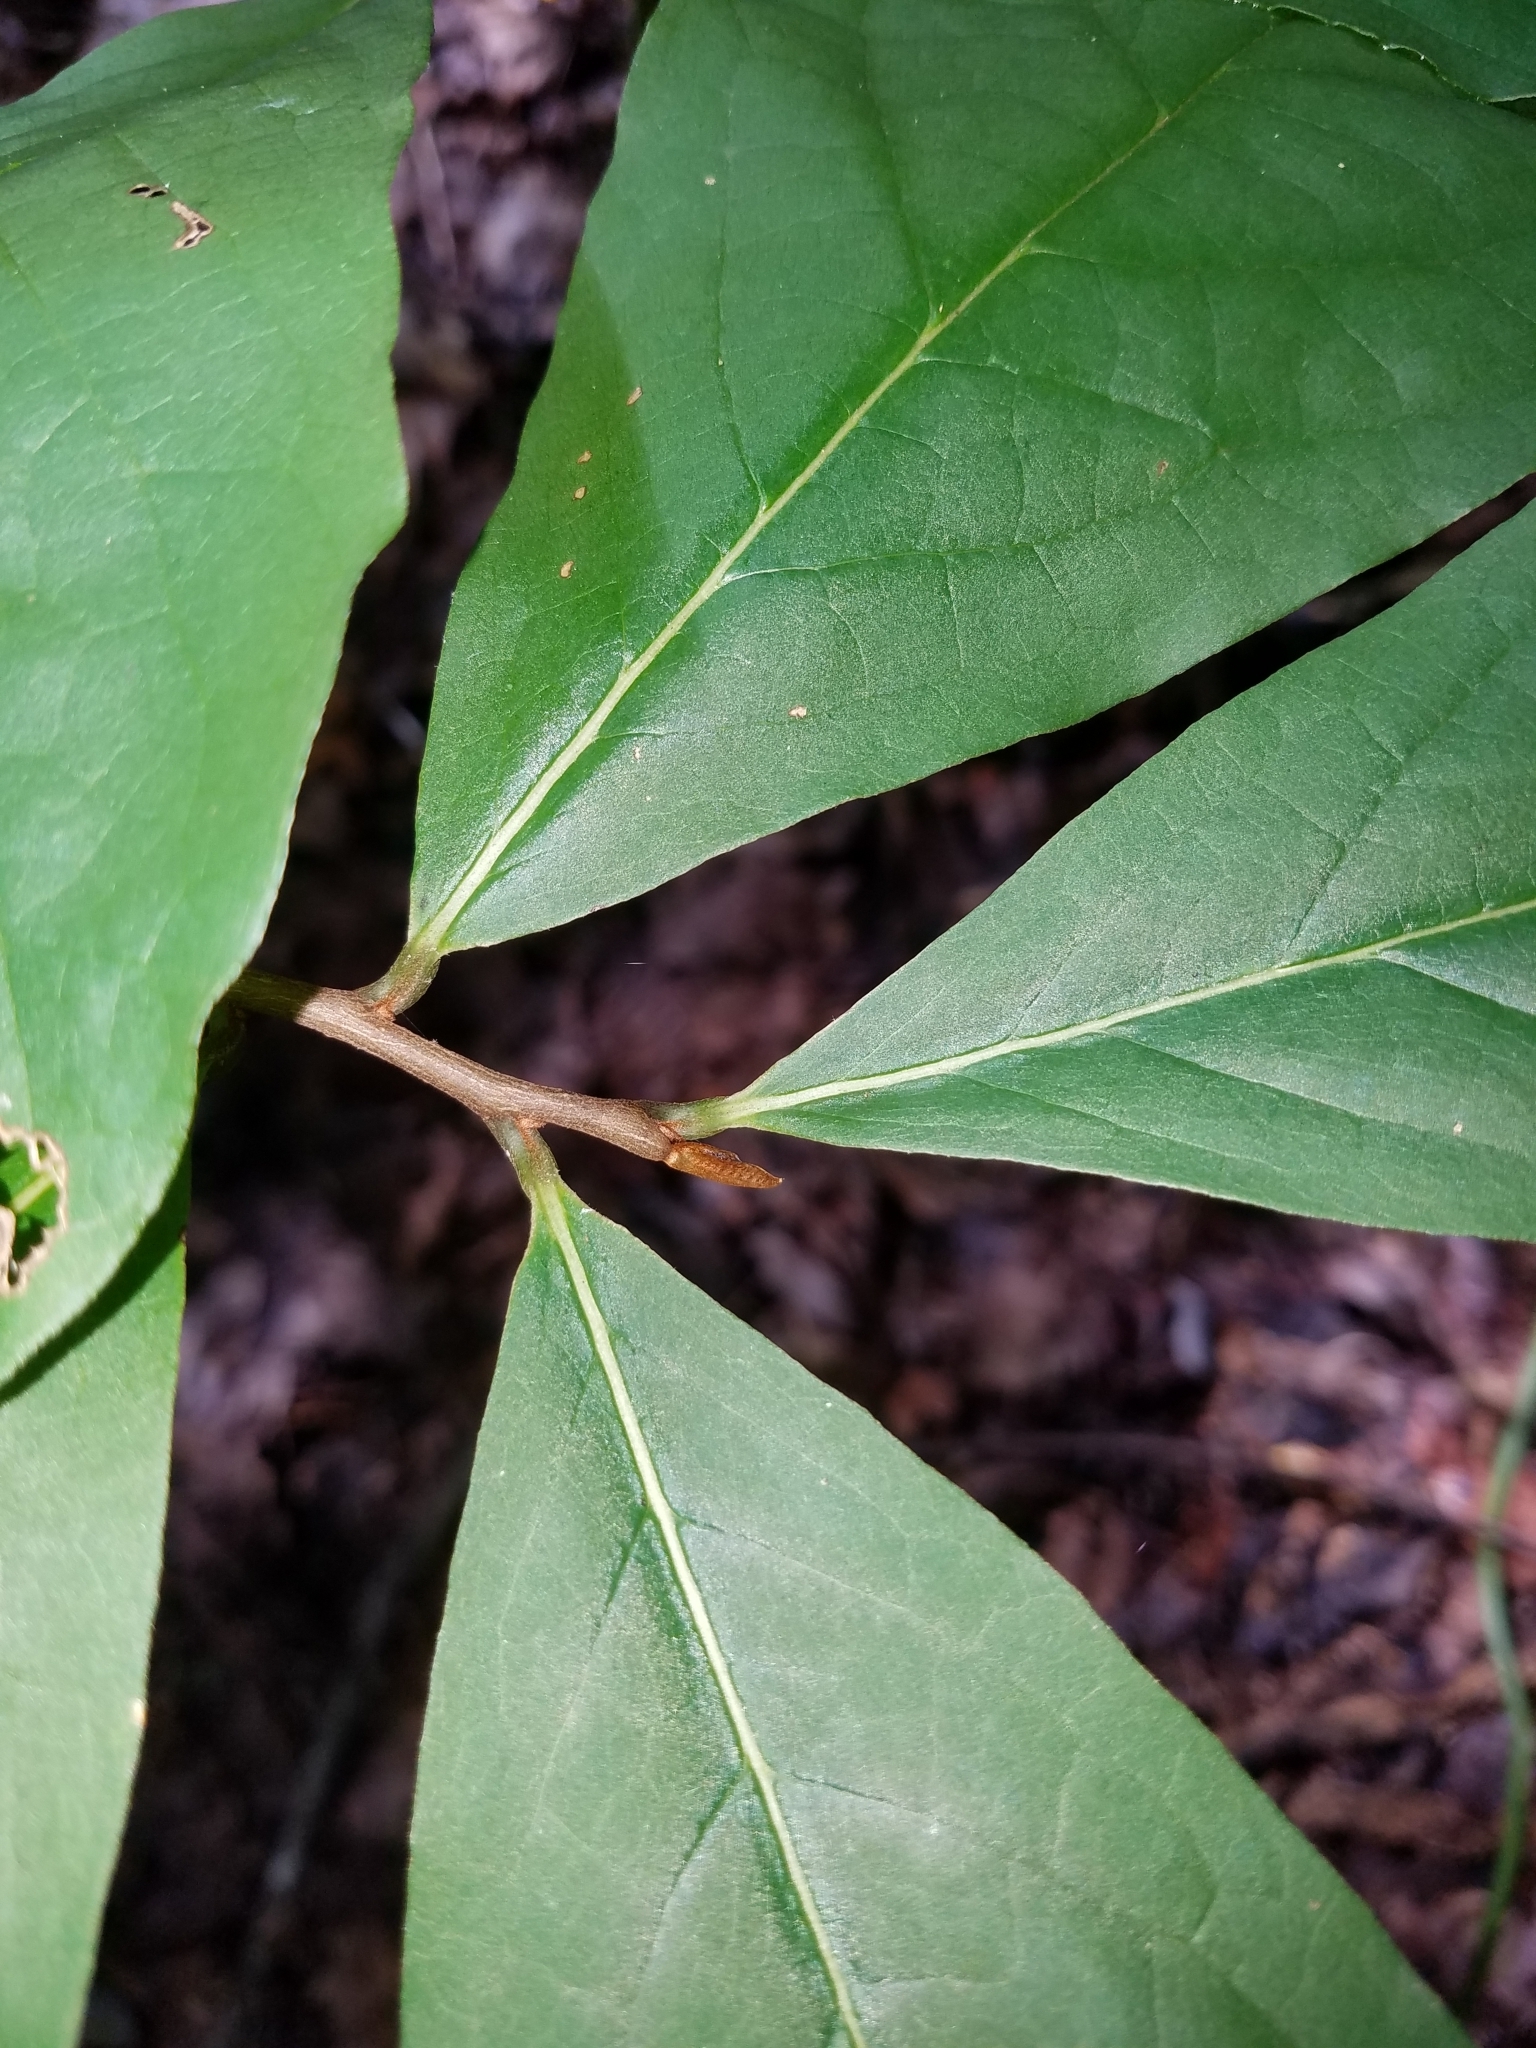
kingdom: Plantae
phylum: Tracheophyta
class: Magnoliopsida
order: Magnoliales
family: Annonaceae
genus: Asimina
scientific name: Asimina triloba
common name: Dog-banana
